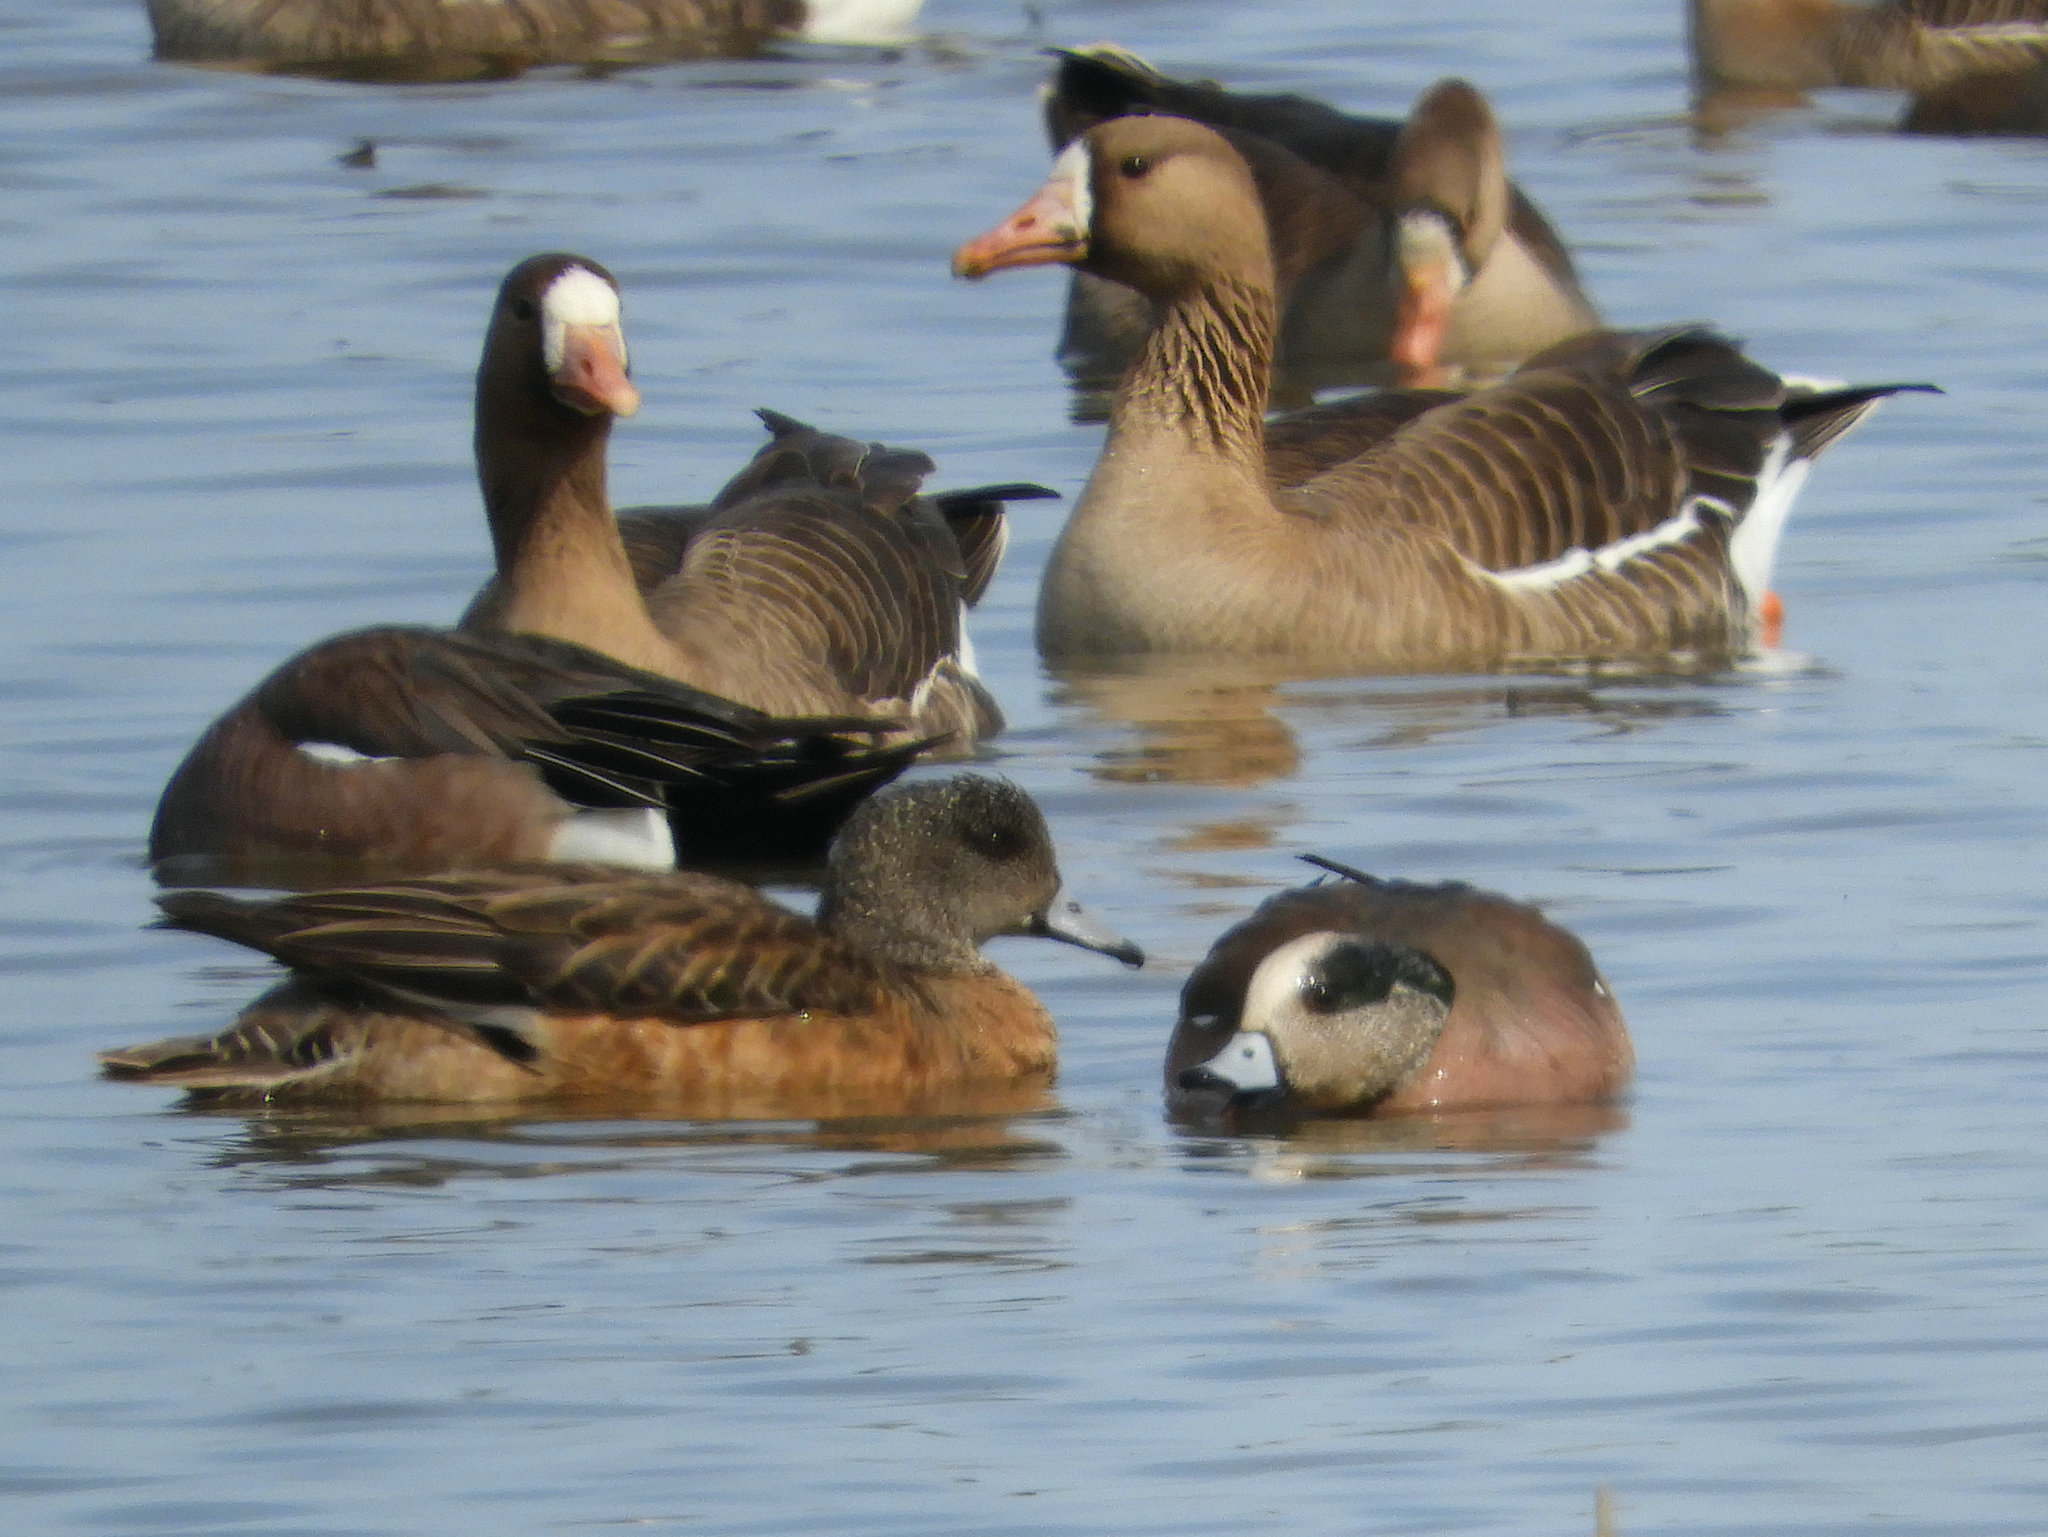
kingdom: Animalia
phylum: Chordata
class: Aves
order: Anseriformes
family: Anatidae
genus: Mareca
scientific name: Mareca americana
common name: American wigeon
